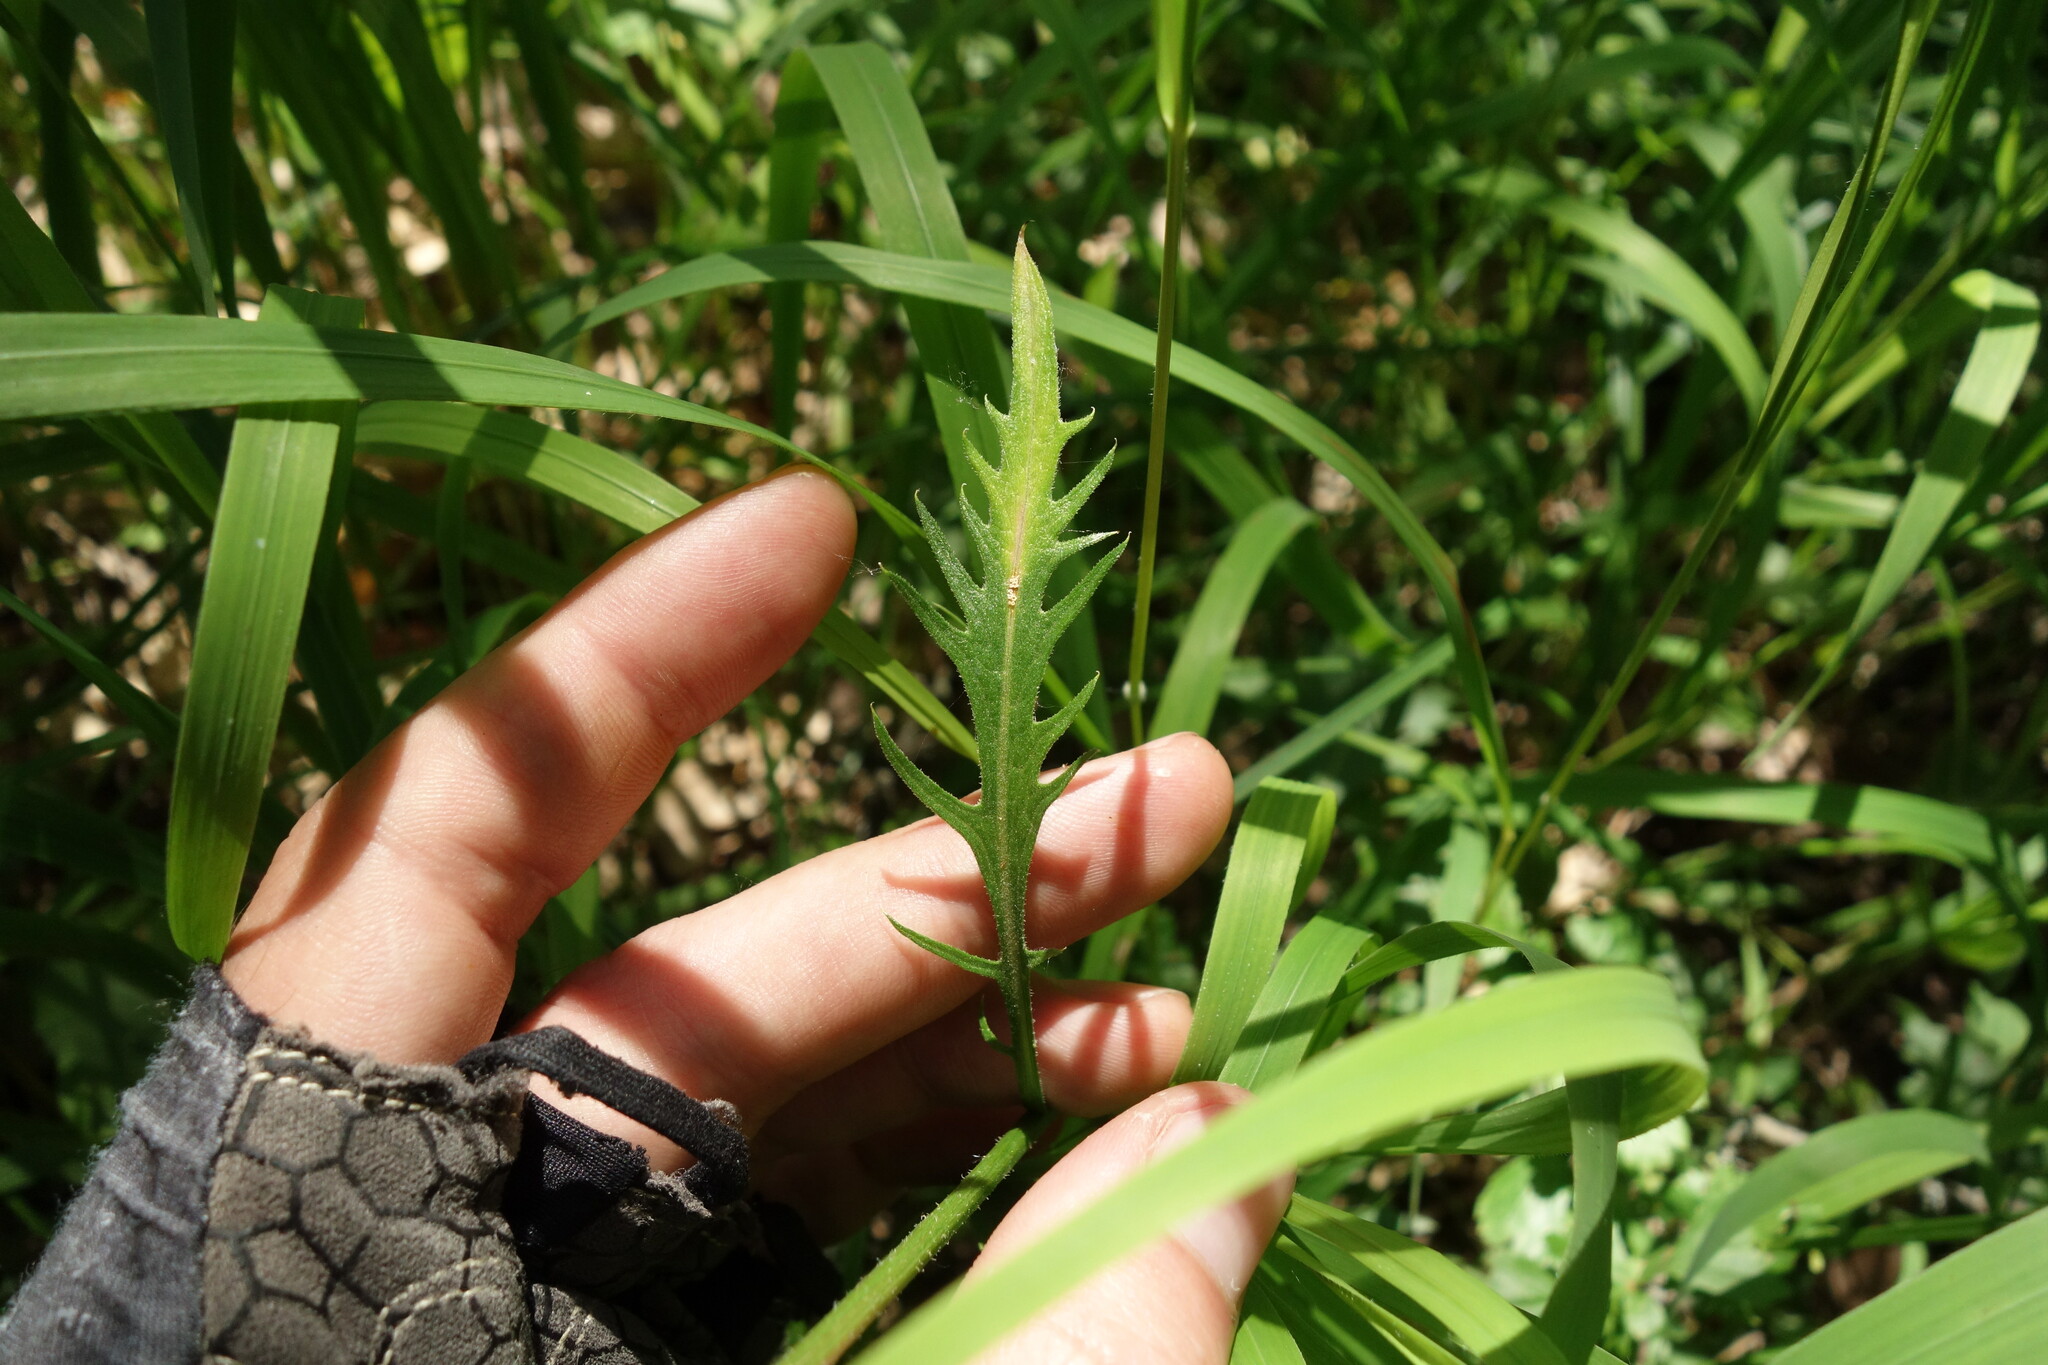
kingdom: Plantae
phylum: Tracheophyta
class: Magnoliopsida
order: Asterales
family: Asteraceae
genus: Klasea
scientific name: Klasea lycopifolia
